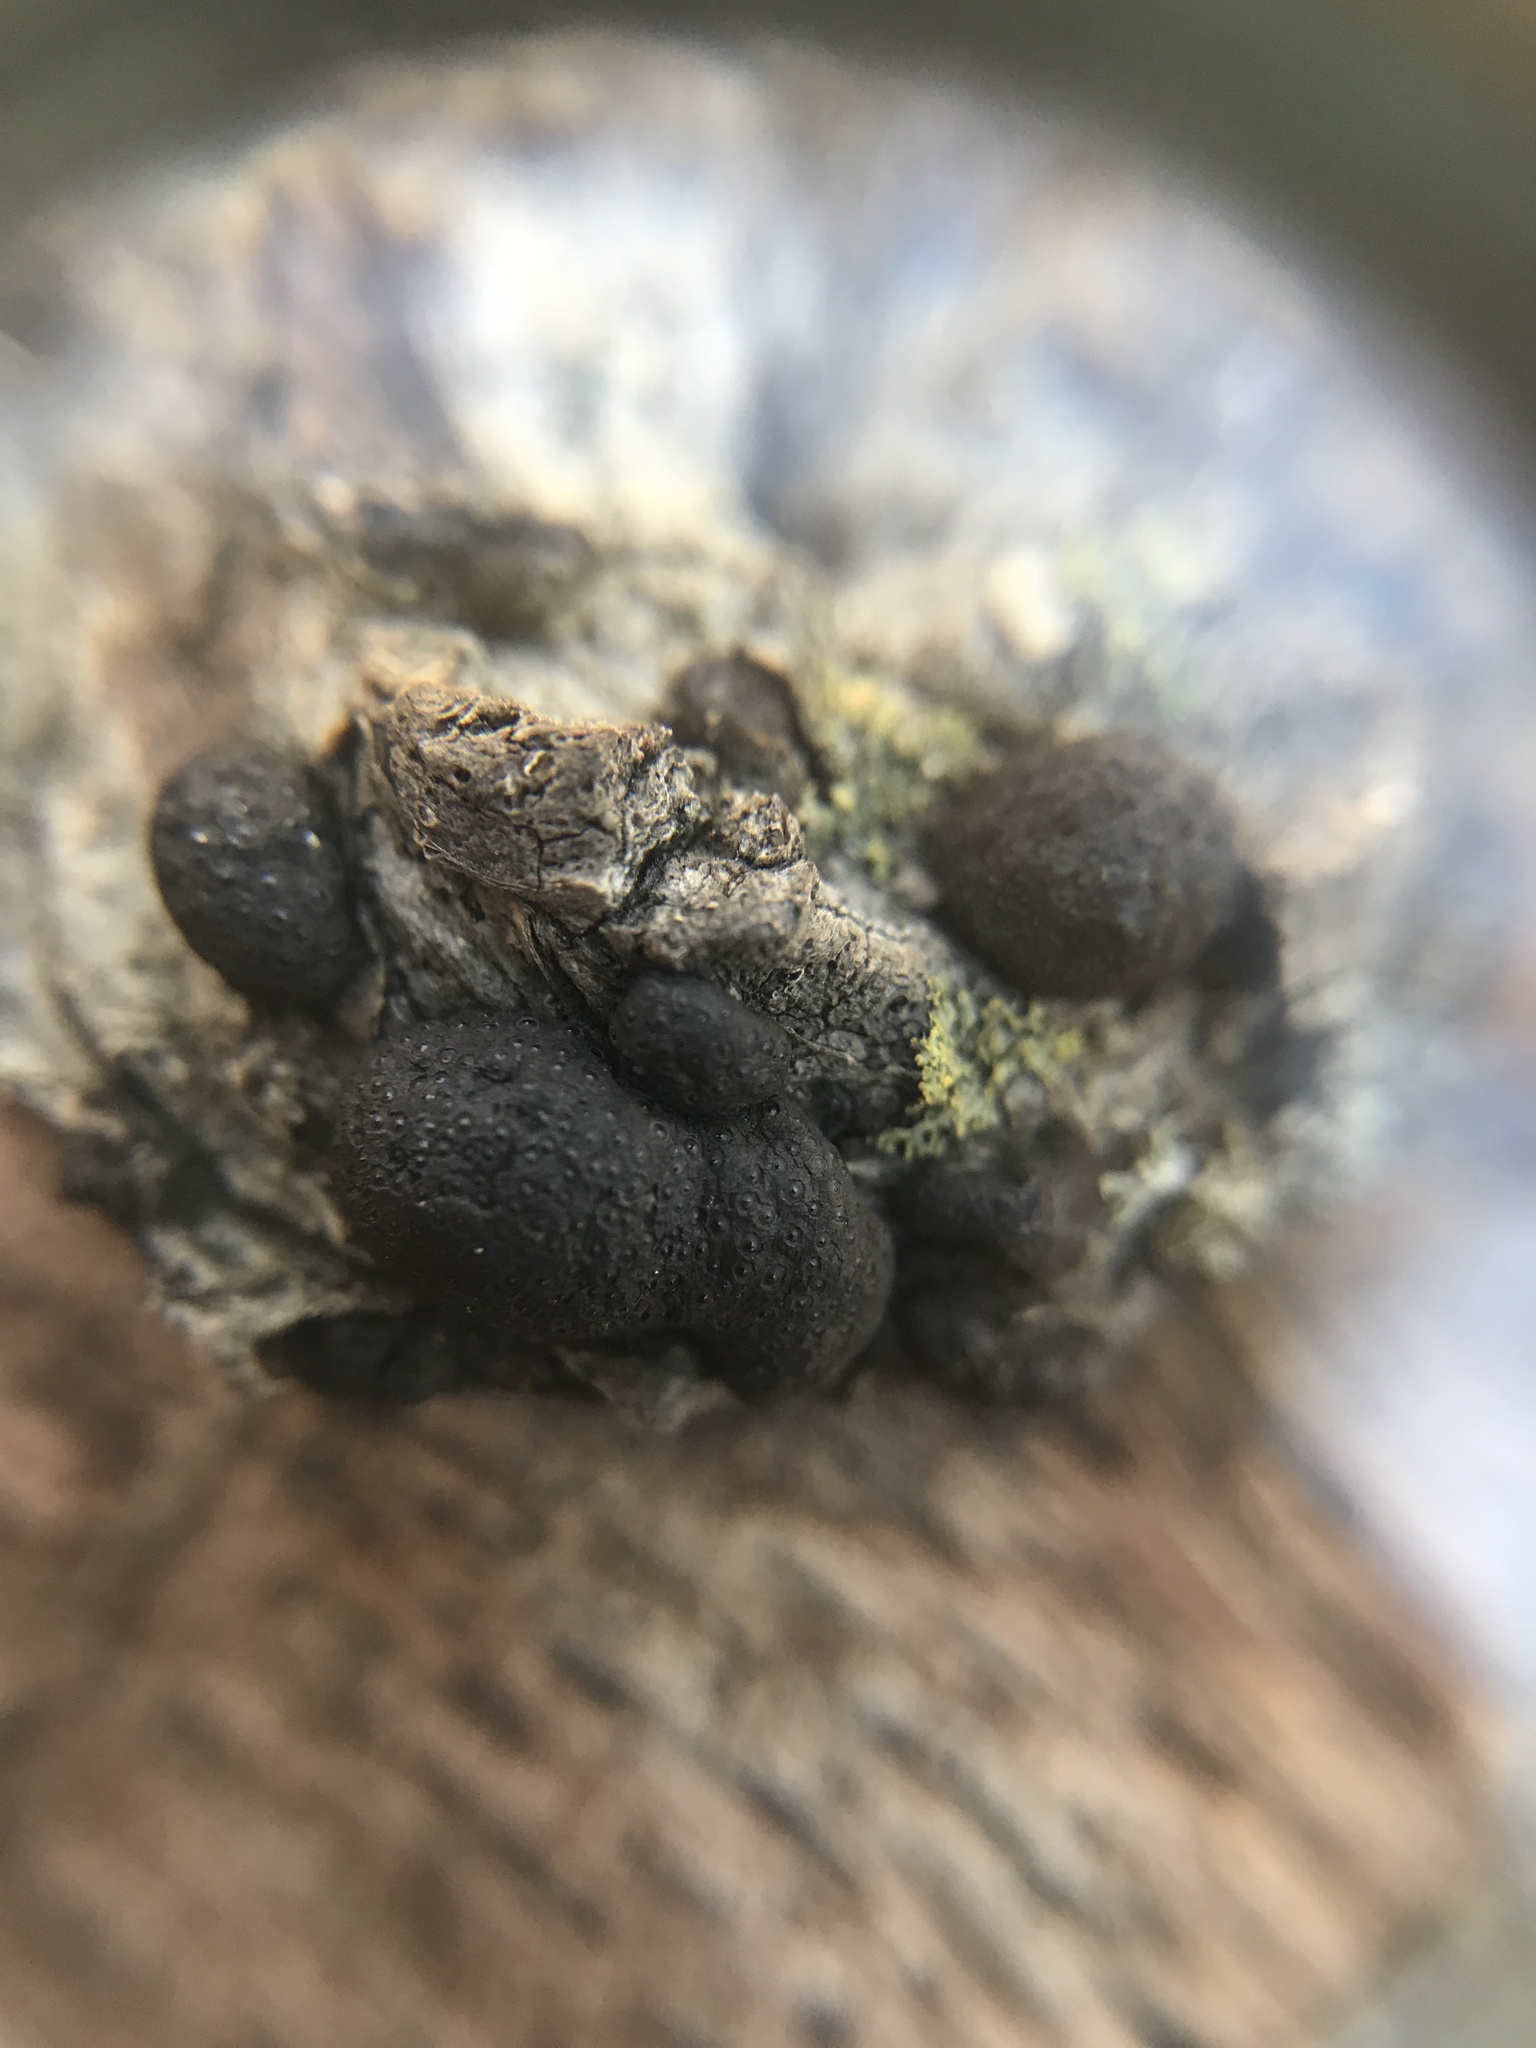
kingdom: Fungi
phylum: Ascomycota
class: Sordariomycetes
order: Xylariales
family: Hypoxylaceae
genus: Annulohypoxylon
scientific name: Annulohypoxylon annulatum
